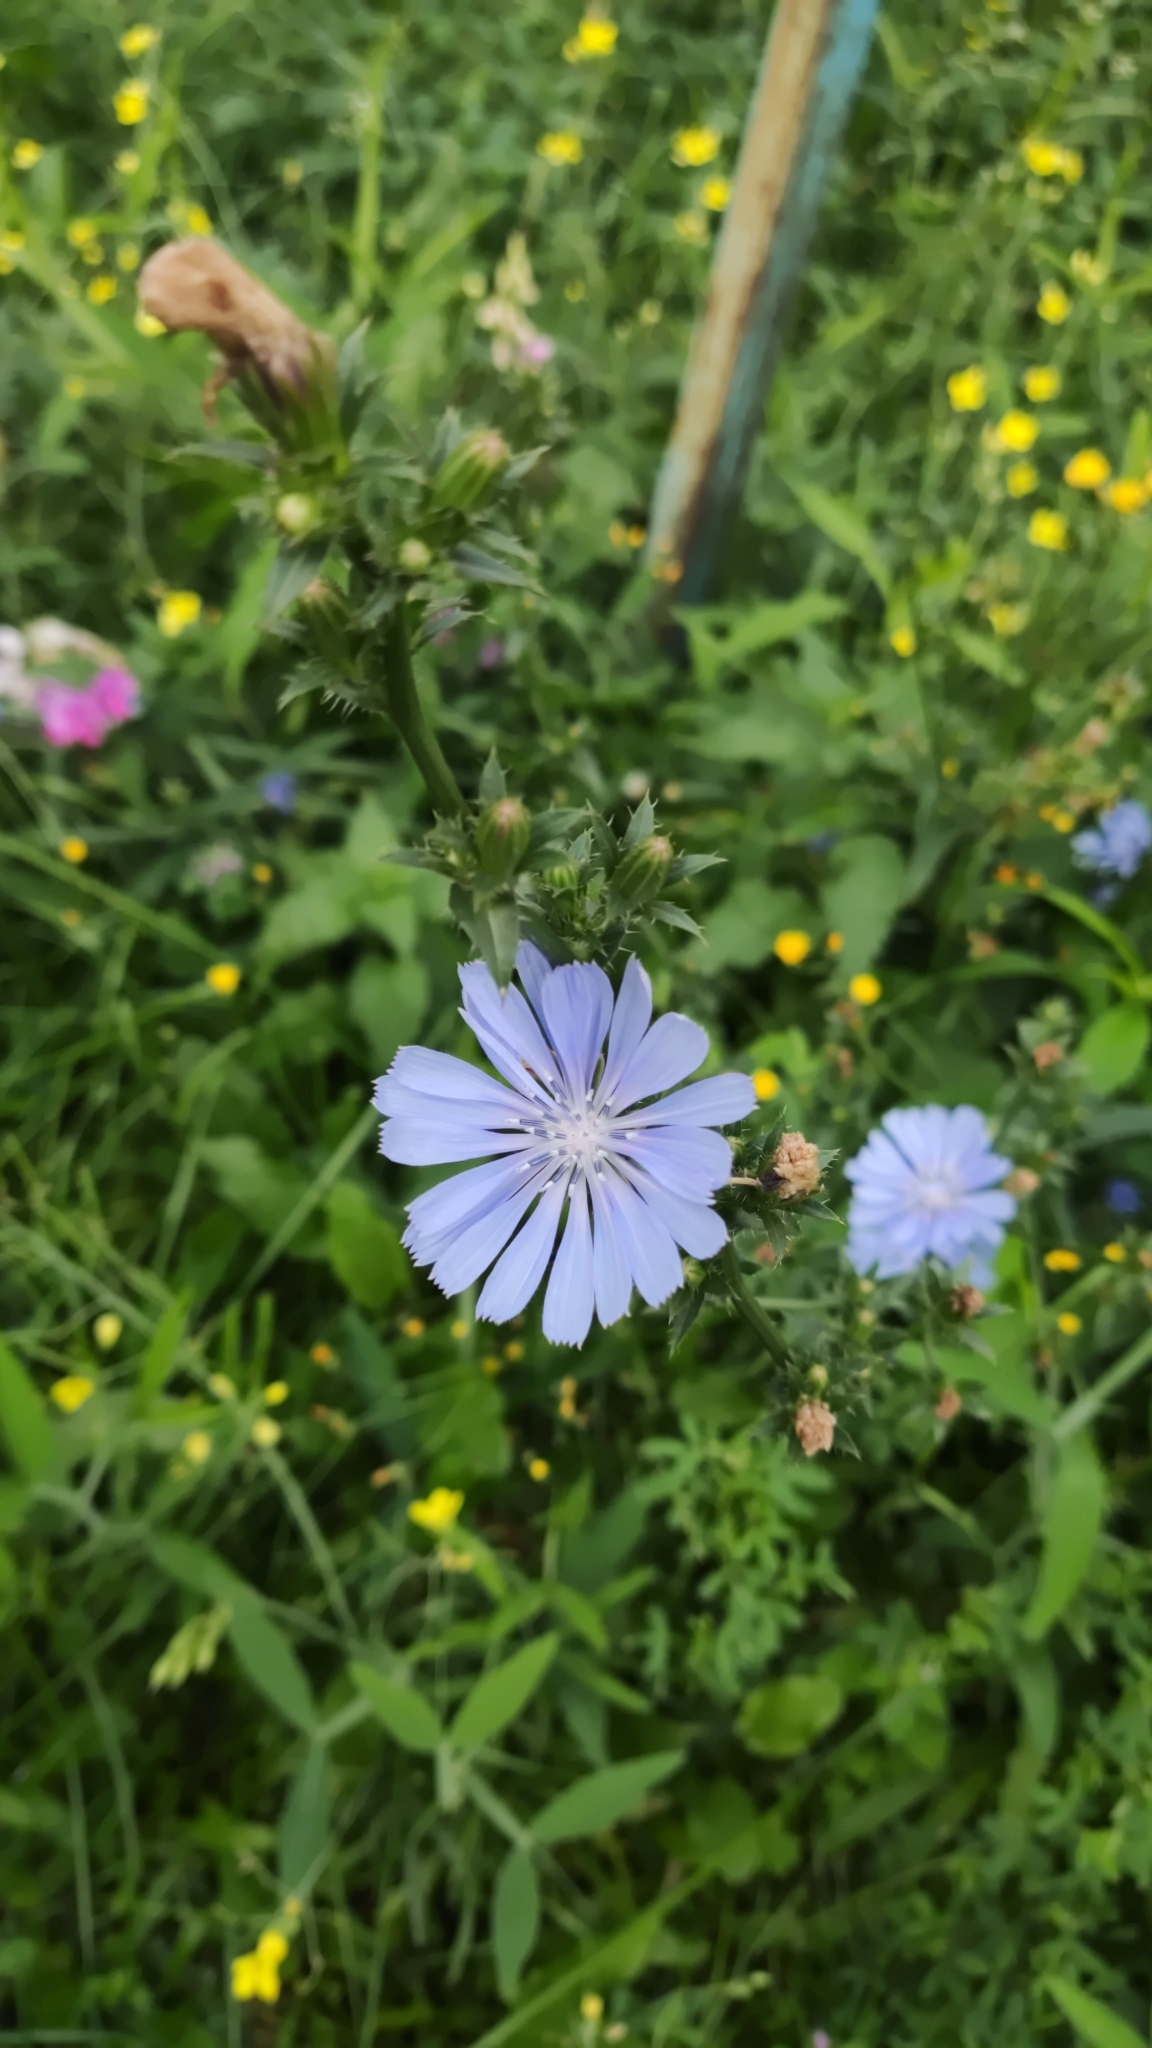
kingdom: Plantae
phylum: Tracheophyta
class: Magnoliopsida
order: Asterales
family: Asteraceae
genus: Cichorium
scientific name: Cichorium intybus
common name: Chicory
